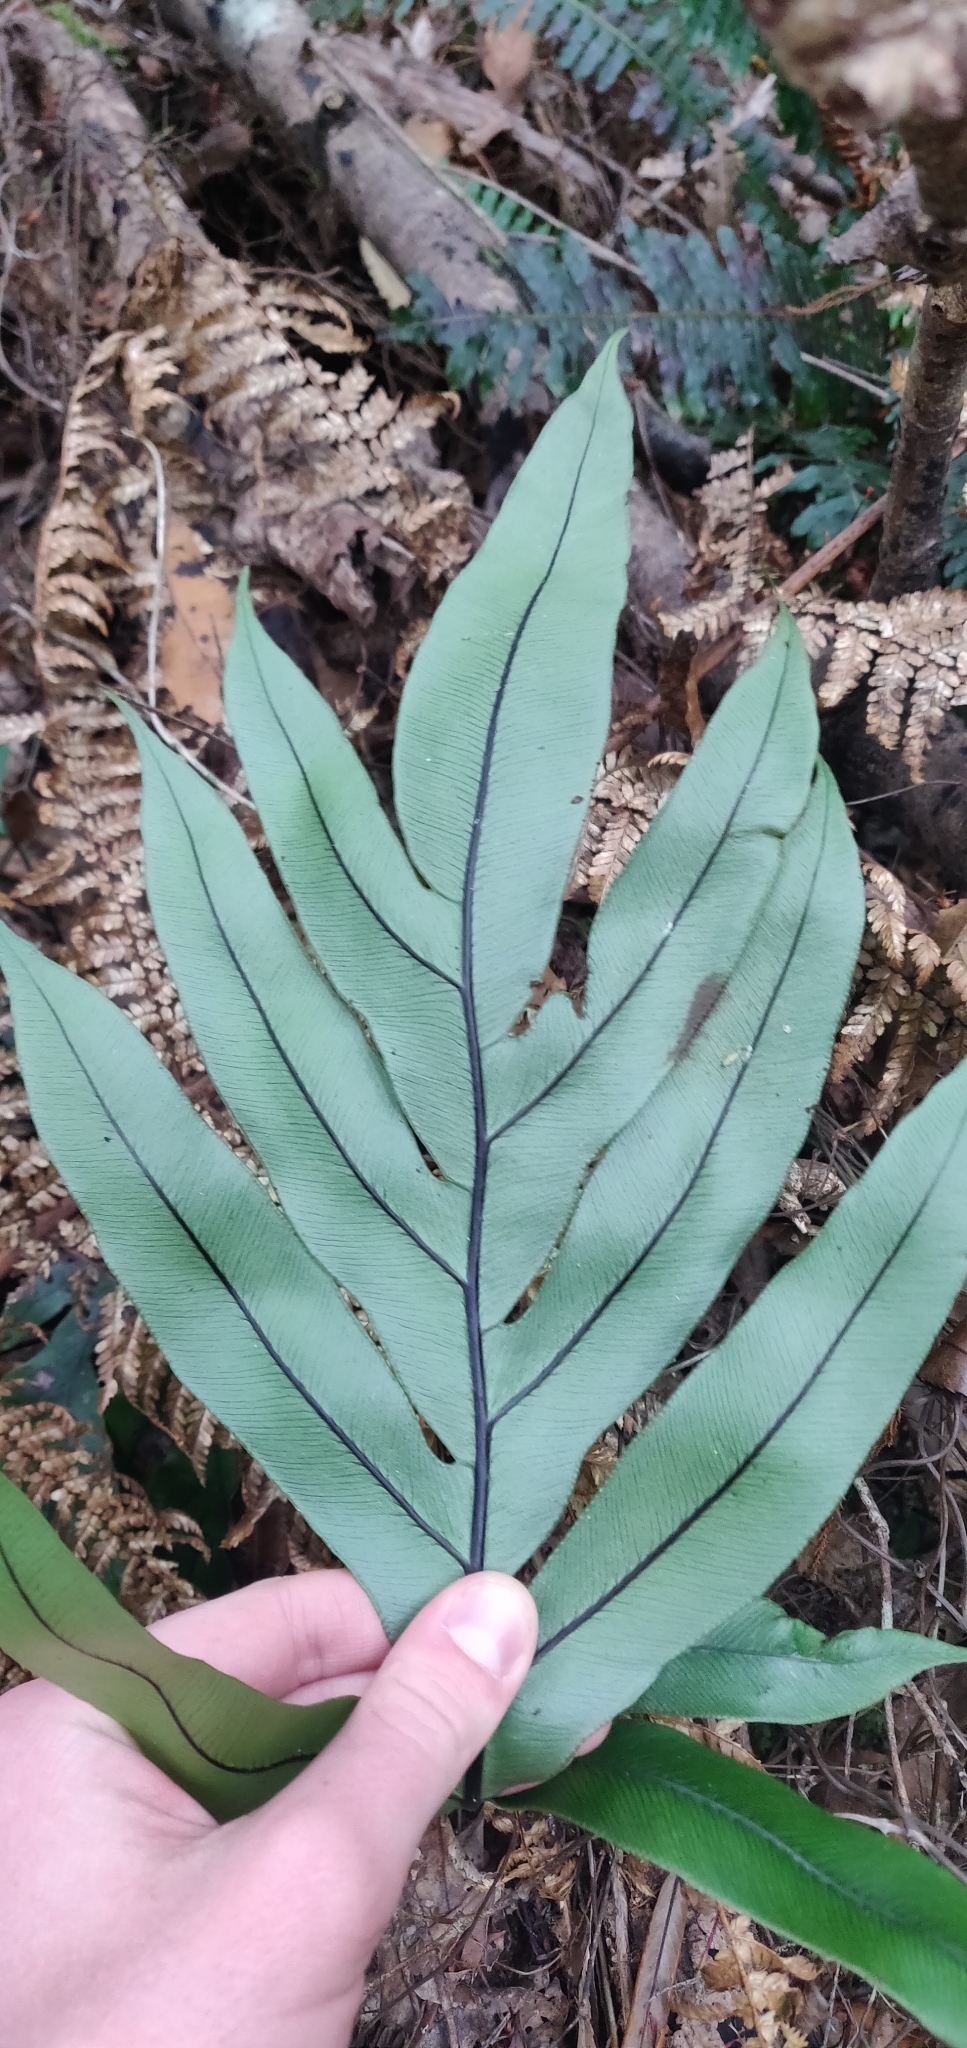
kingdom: Plantae
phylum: Tracheophyta
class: Polypodiopsida
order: Polypodiales
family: Blechnaceae
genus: Austroblechnum
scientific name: Austroblechnum colensoi
